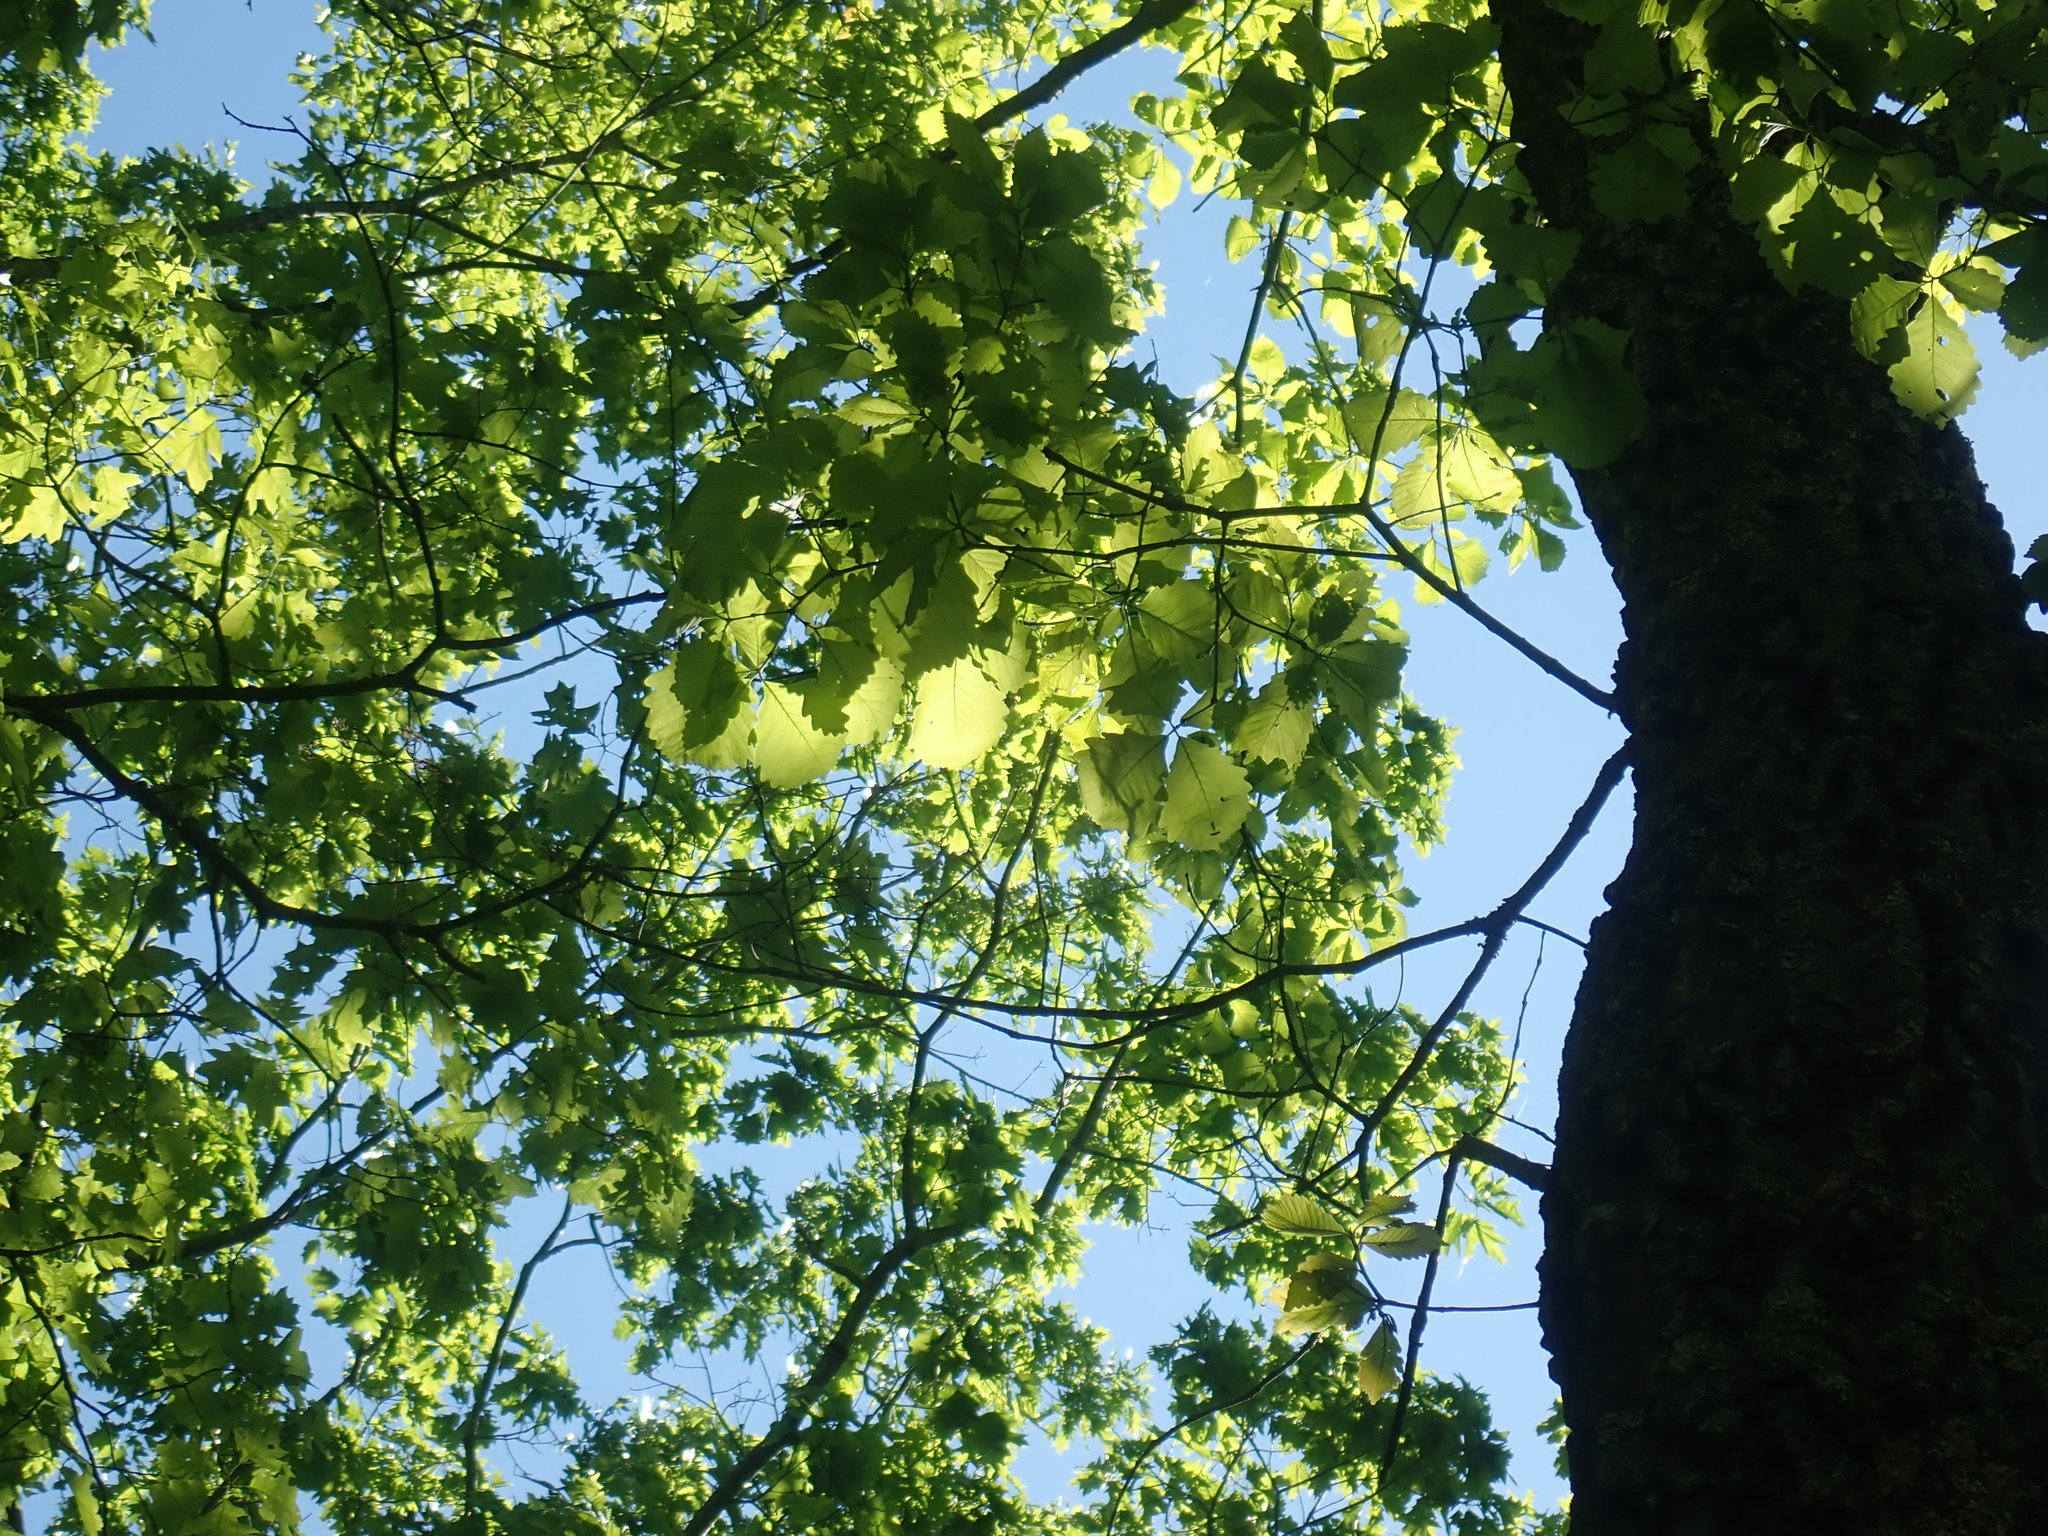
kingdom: Plantae
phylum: Tracheophyta
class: Magnoliopsida
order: Fagales
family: Fagaceae
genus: Quercus
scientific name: Quercus montana
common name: Chestnut oak
